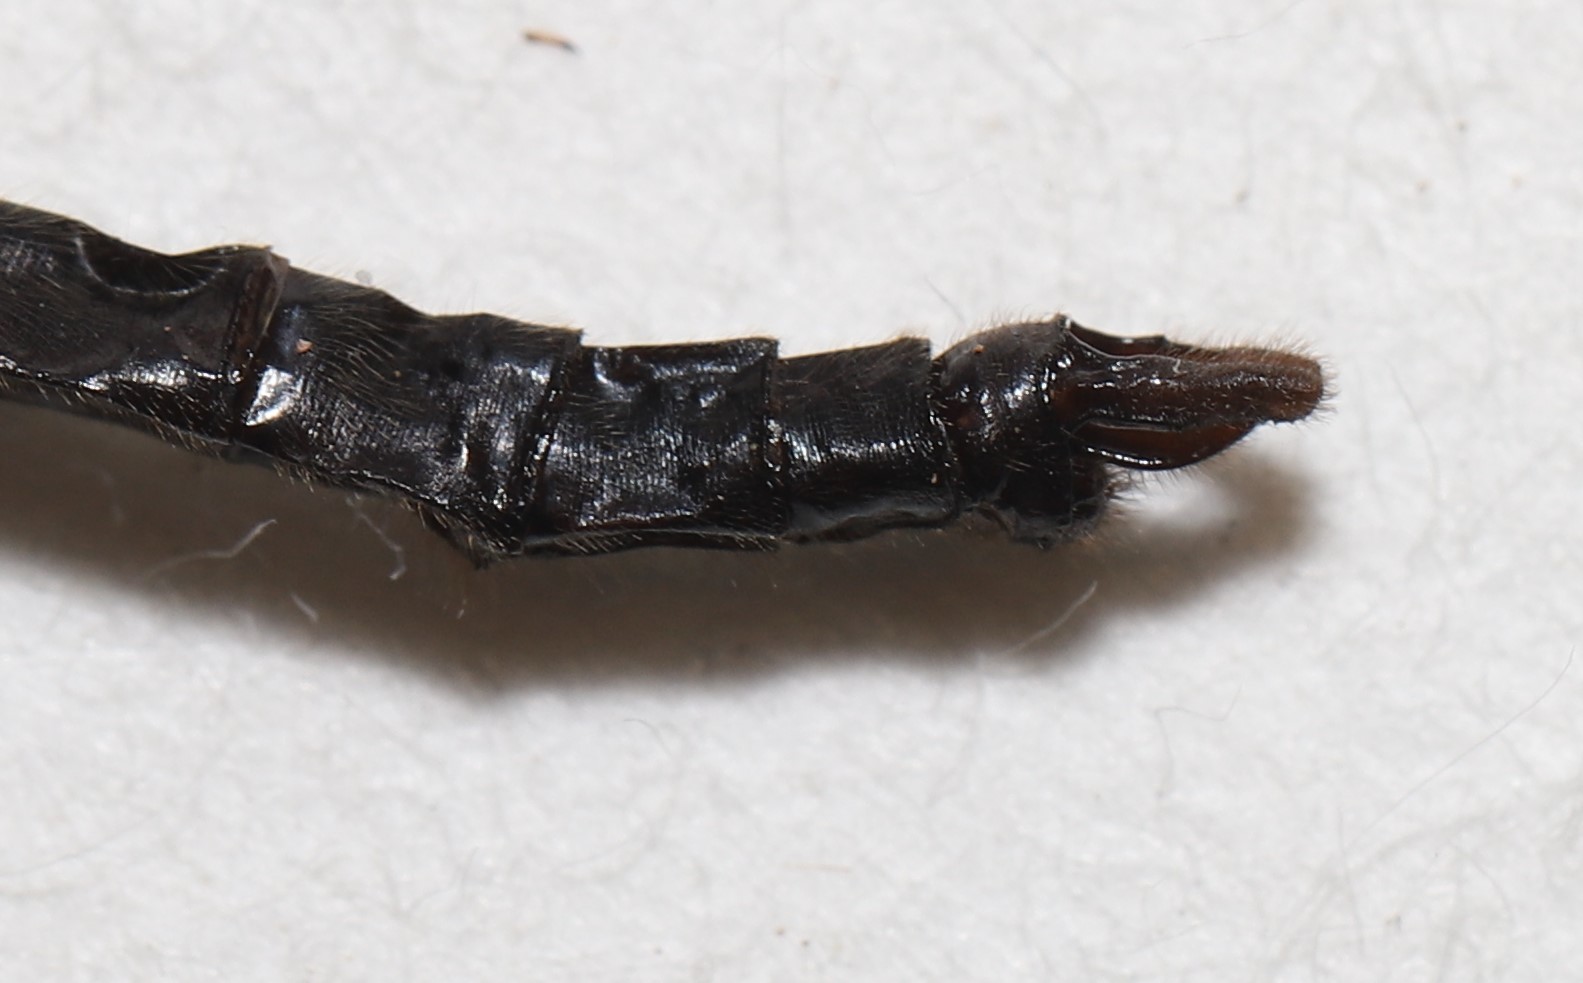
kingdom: Animalia
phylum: Arthropoda
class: Insecta
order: Odonata
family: Corduliidae
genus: Williamsonia
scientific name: Williamsonia fletcheri
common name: Ebony boghaunter
